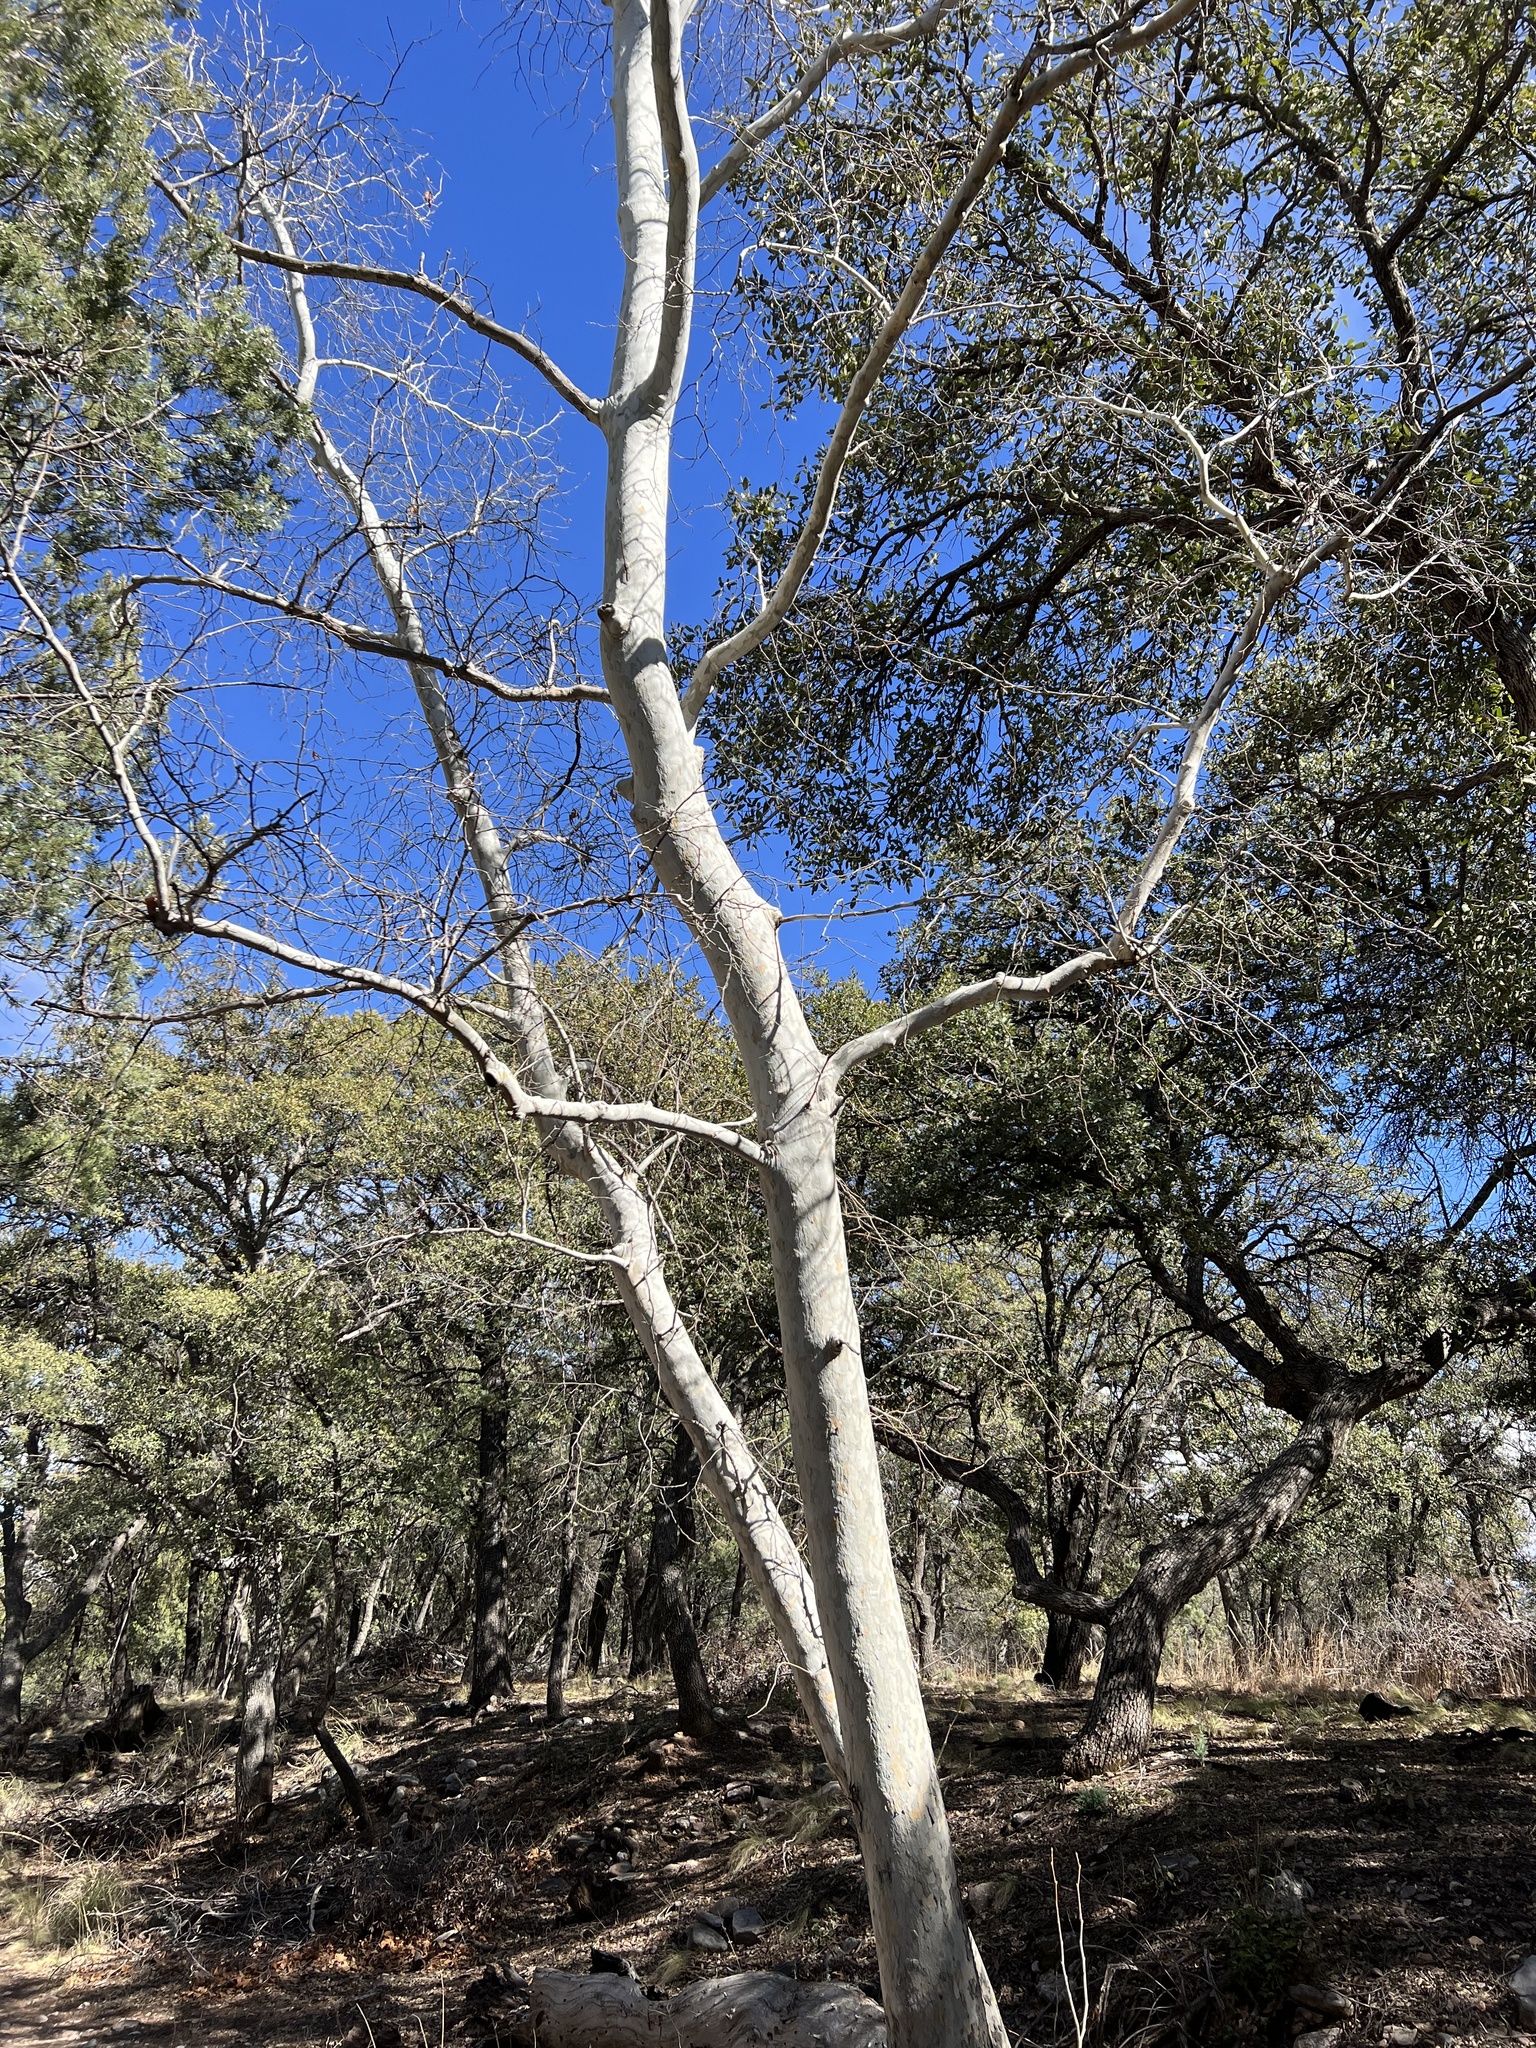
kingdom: Plantae
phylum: Tracheophyta
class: Magnoliopsida
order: Proteales
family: Platanaceae
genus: Platanus
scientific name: Platanus wrightii
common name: Arizona sycamore
